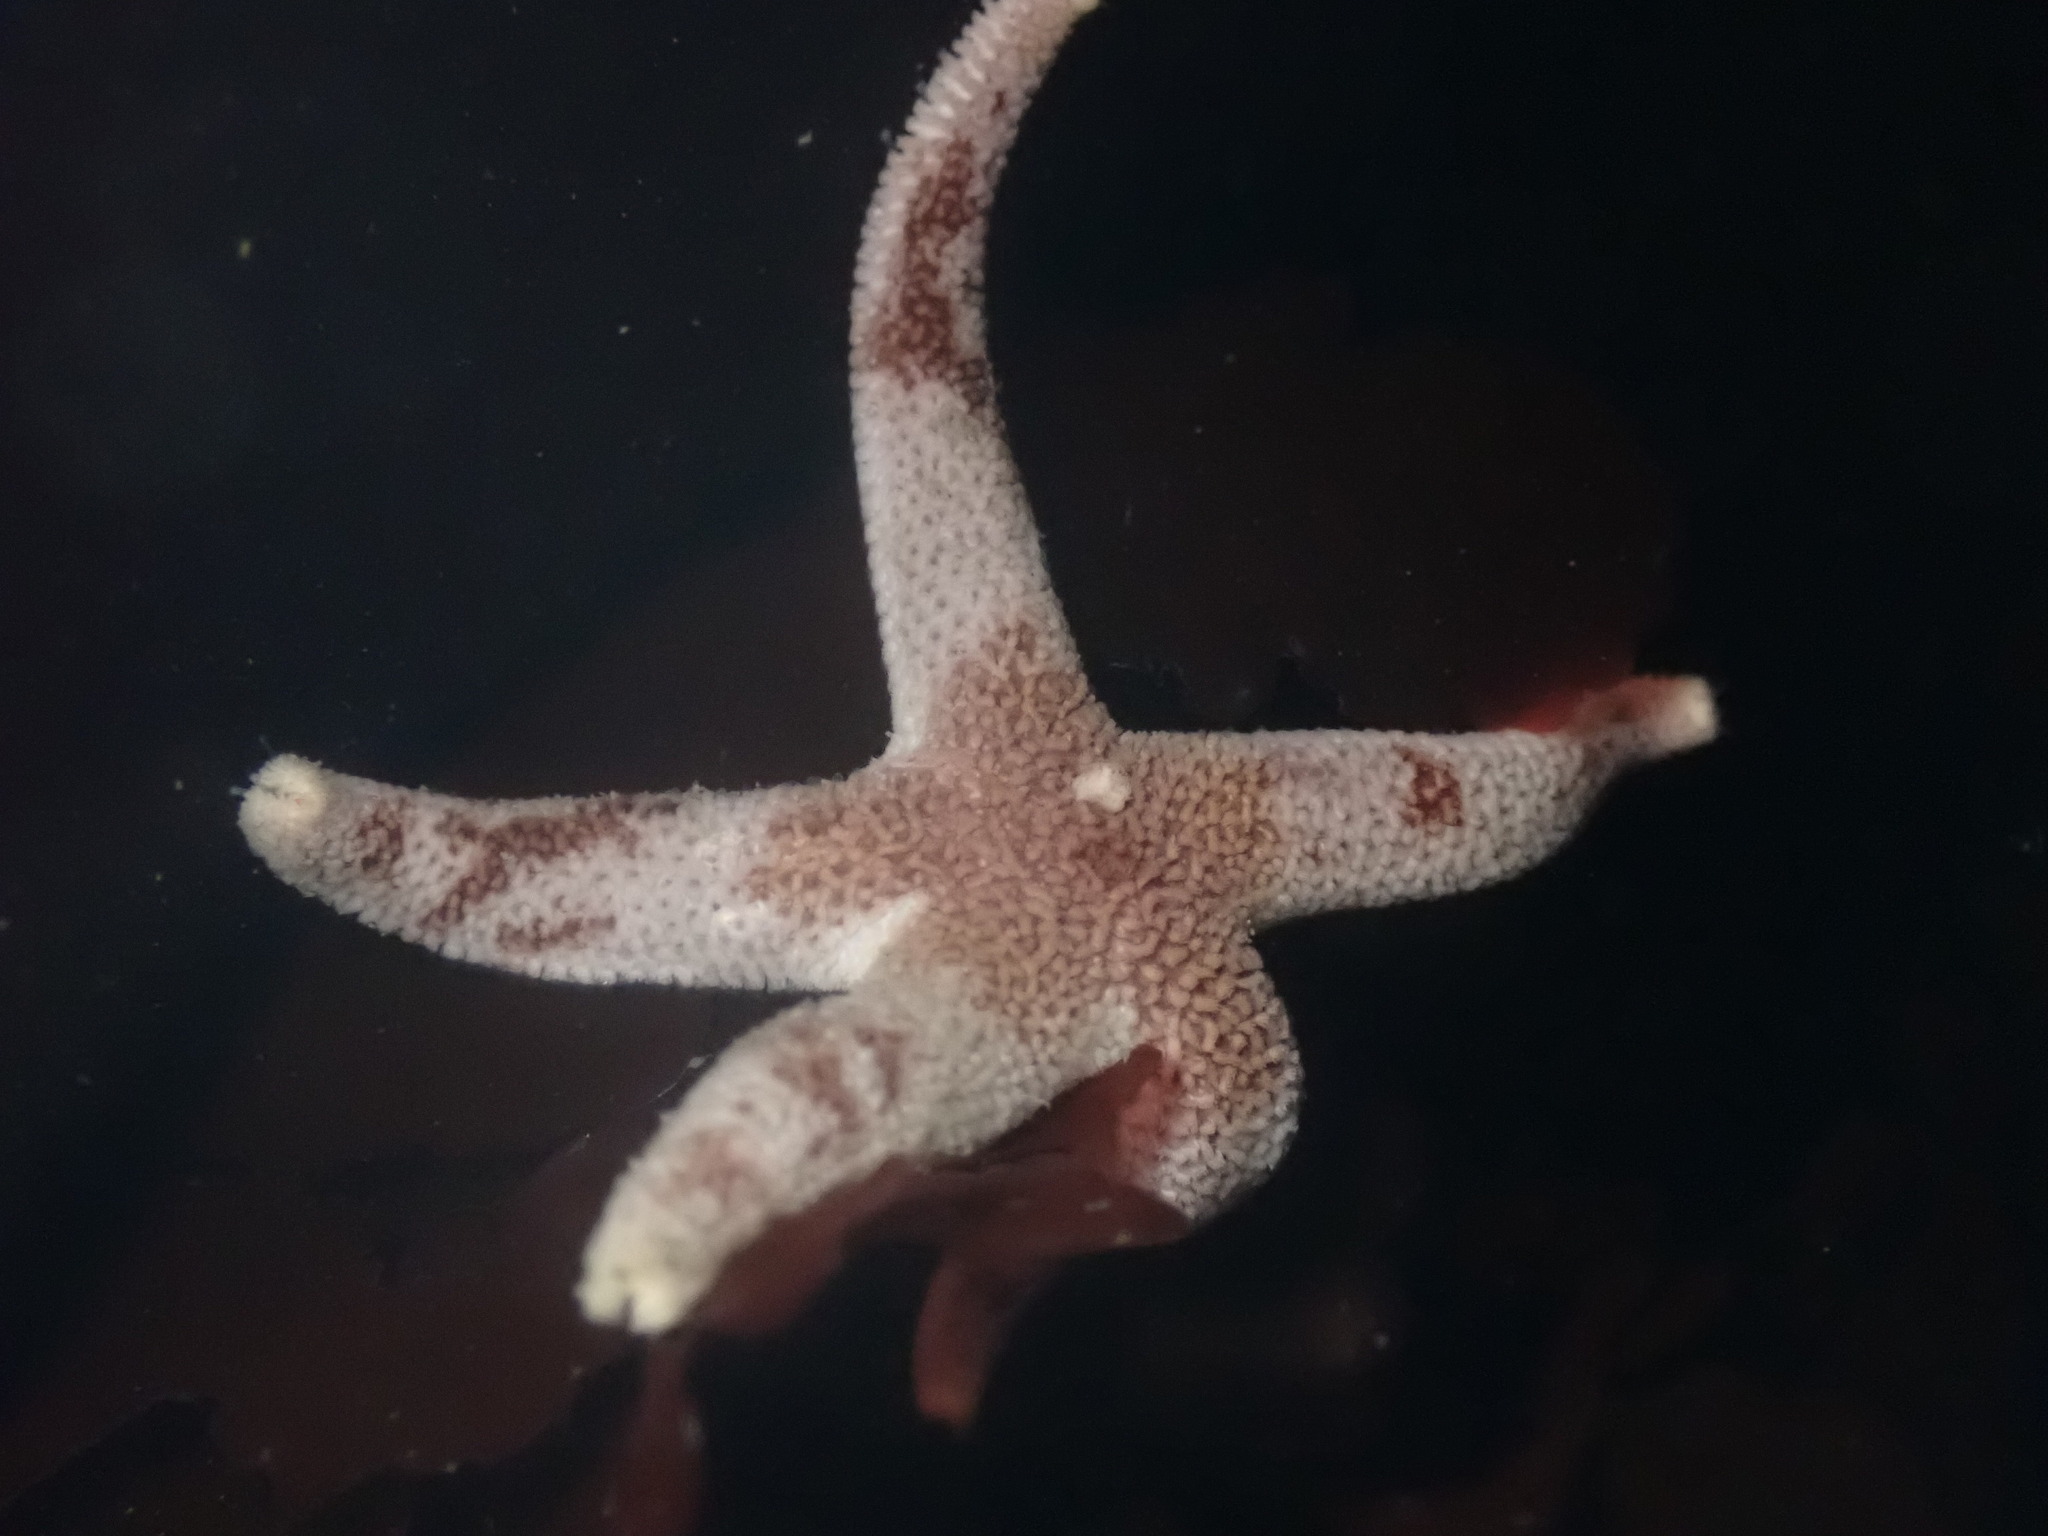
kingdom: Animalia
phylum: Echinodermata
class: Asteroidea
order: Spinulosida
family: Echinasteridae
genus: Henricia
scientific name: Henricia pumila
